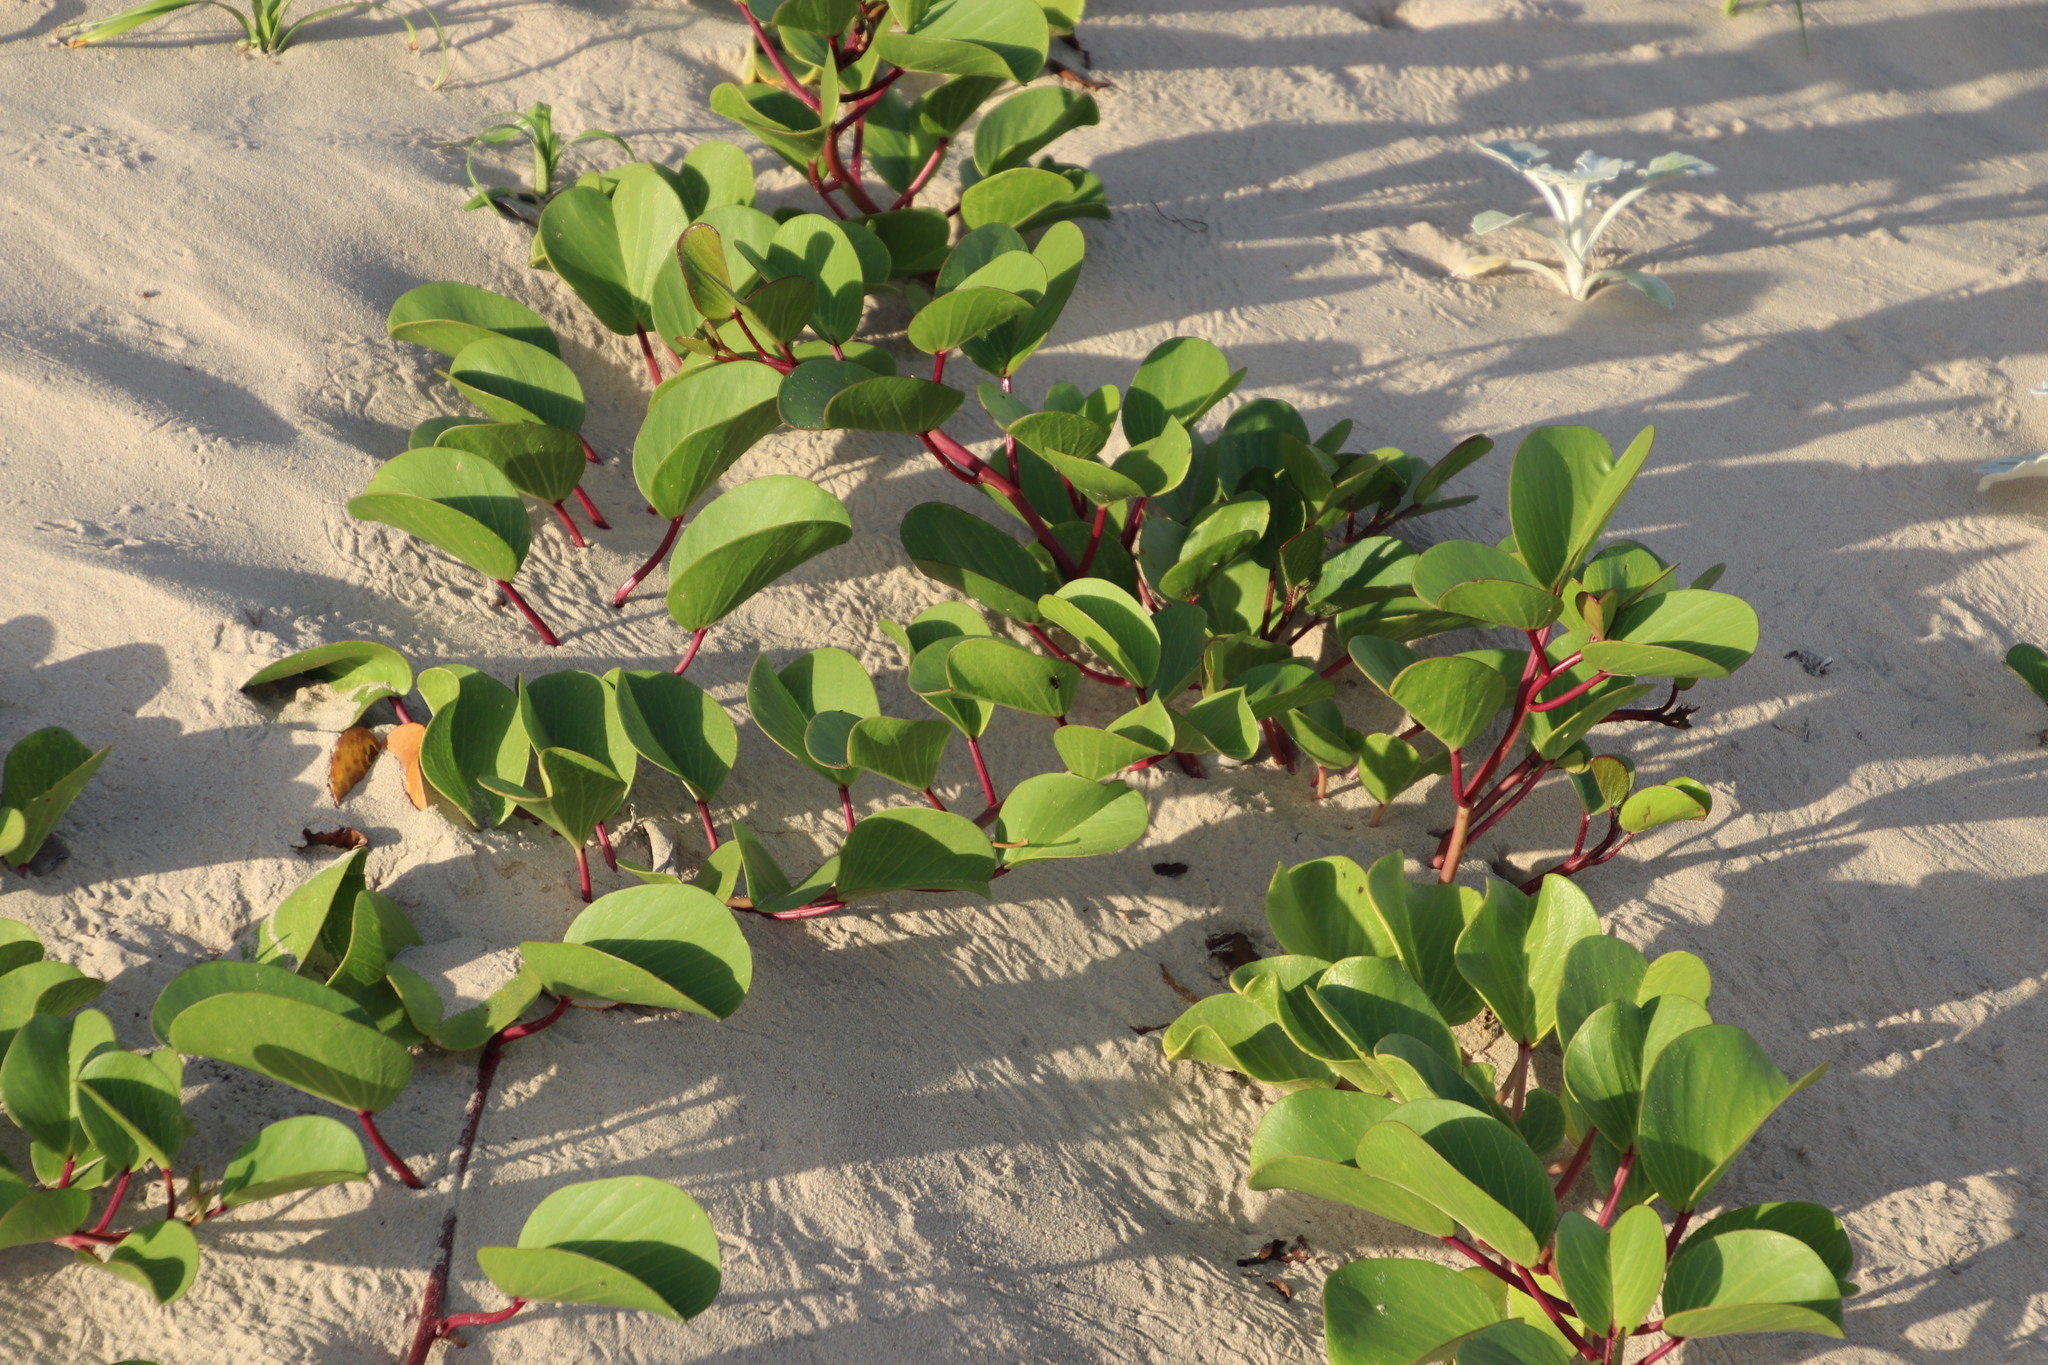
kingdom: Plantae
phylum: Tracheophyta
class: Magnoliopsida
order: Solanales
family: Convolvulaceae
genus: Ipomoea
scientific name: Ipomoea pes-caprae
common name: Beach morning glory
